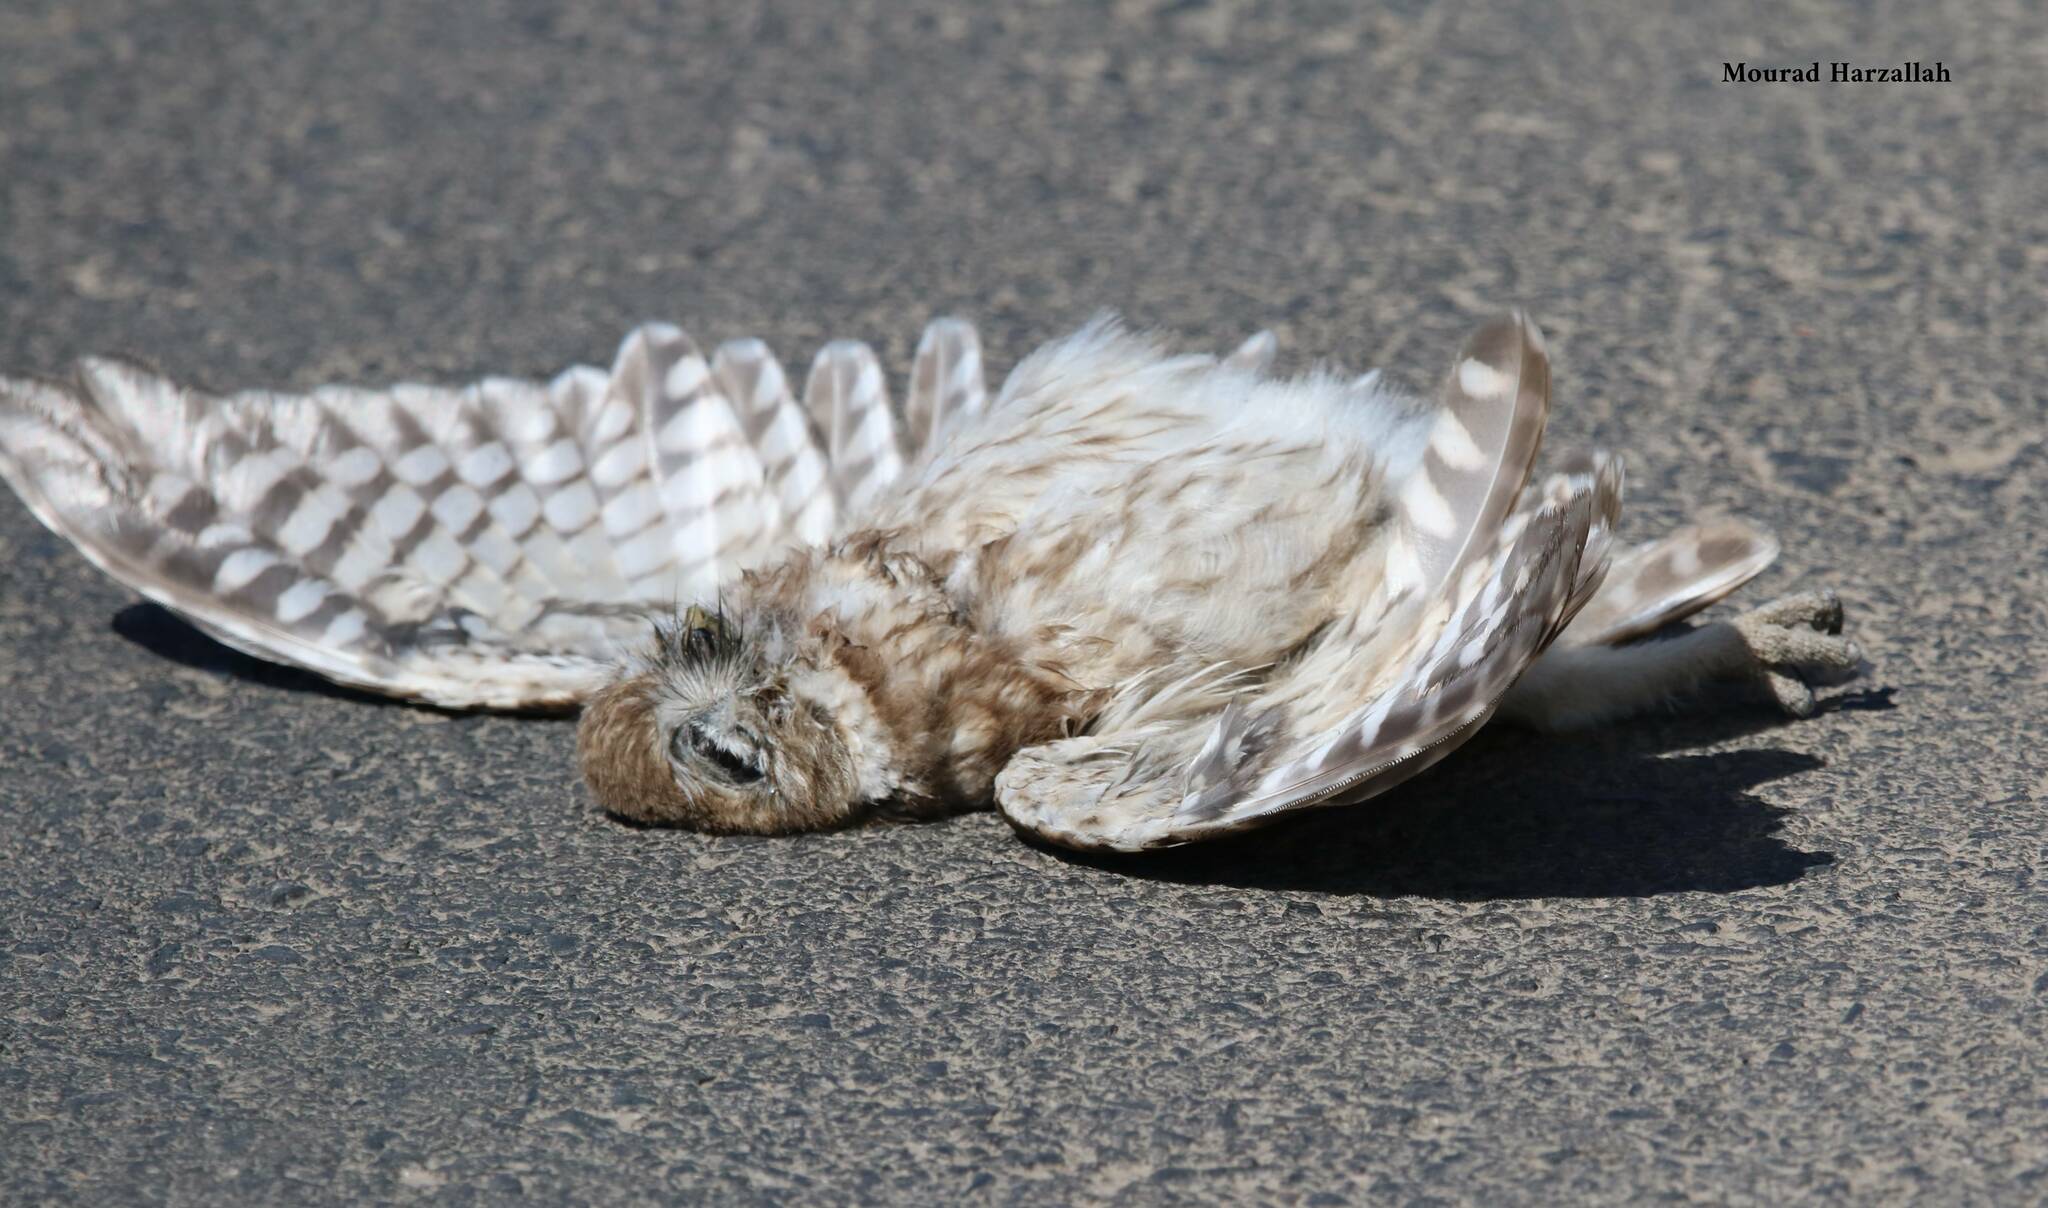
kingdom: Animalia
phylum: Chordata
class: Aves
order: Strigiformes
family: Strigidae
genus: Athene
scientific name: Athene noctua
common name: Little owl
